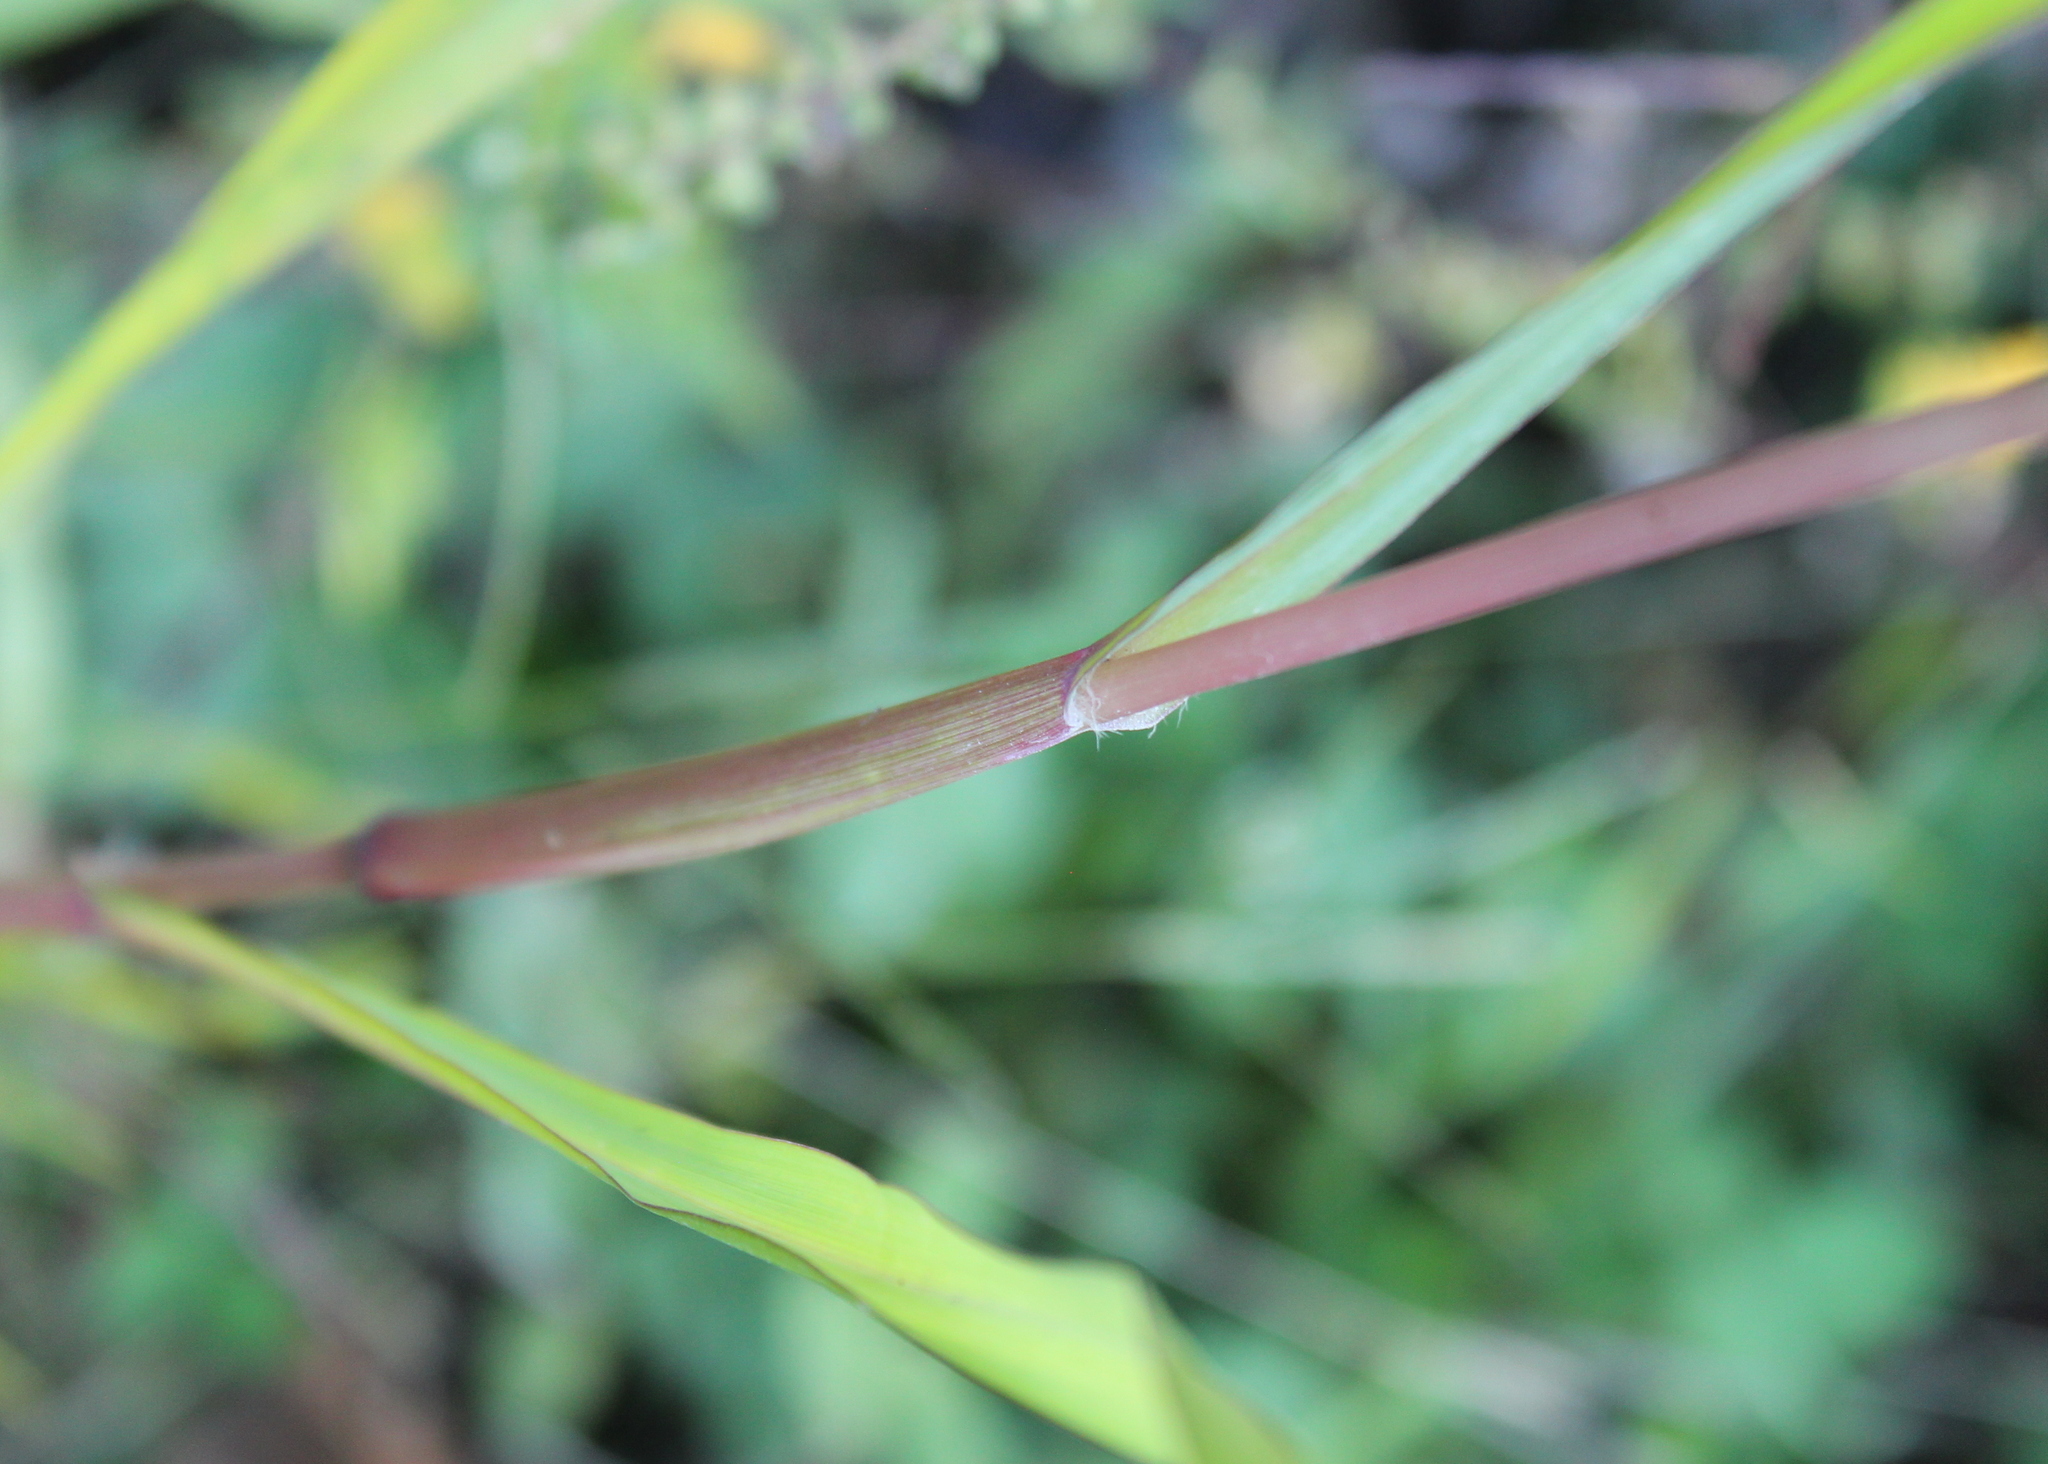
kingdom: Plantae
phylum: Tracheophyta
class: Liliopsida
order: Poales
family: Poaceae
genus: Setaria
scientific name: Setaria pumila
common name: Yellow bristle-grass
